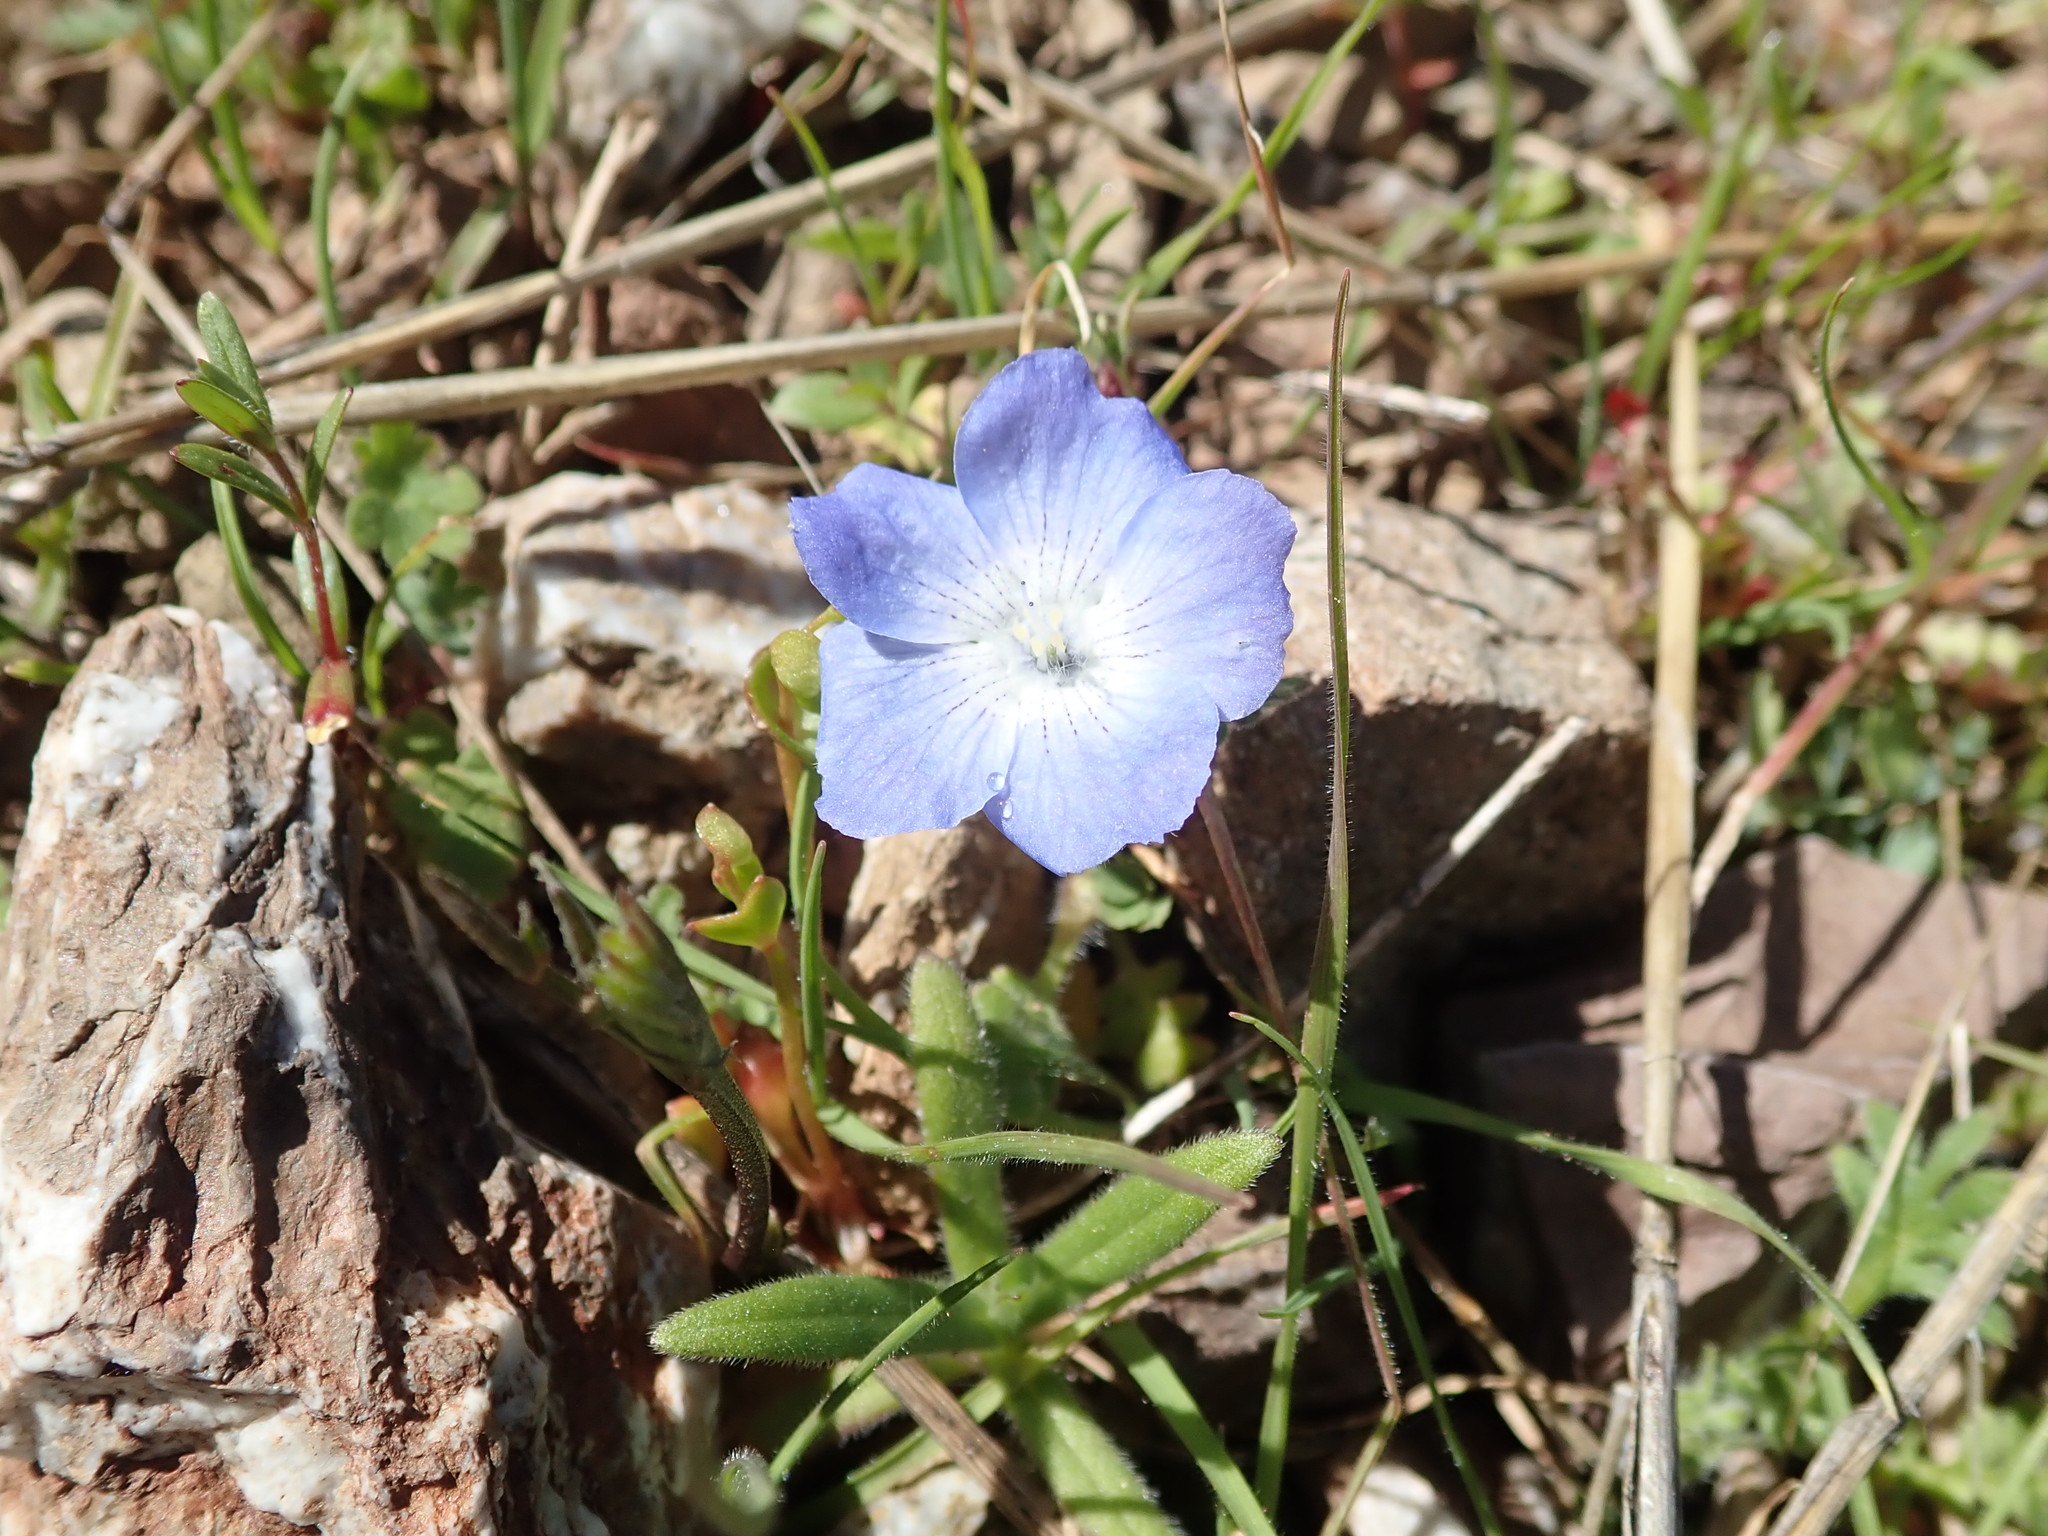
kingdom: Plantae
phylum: Tracheophyta
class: Magnoliopsida
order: Boraginales
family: Hydrophyllaceae
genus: Nemophila
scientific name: Nemophila menziesii
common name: Baby's-blue-eyes
